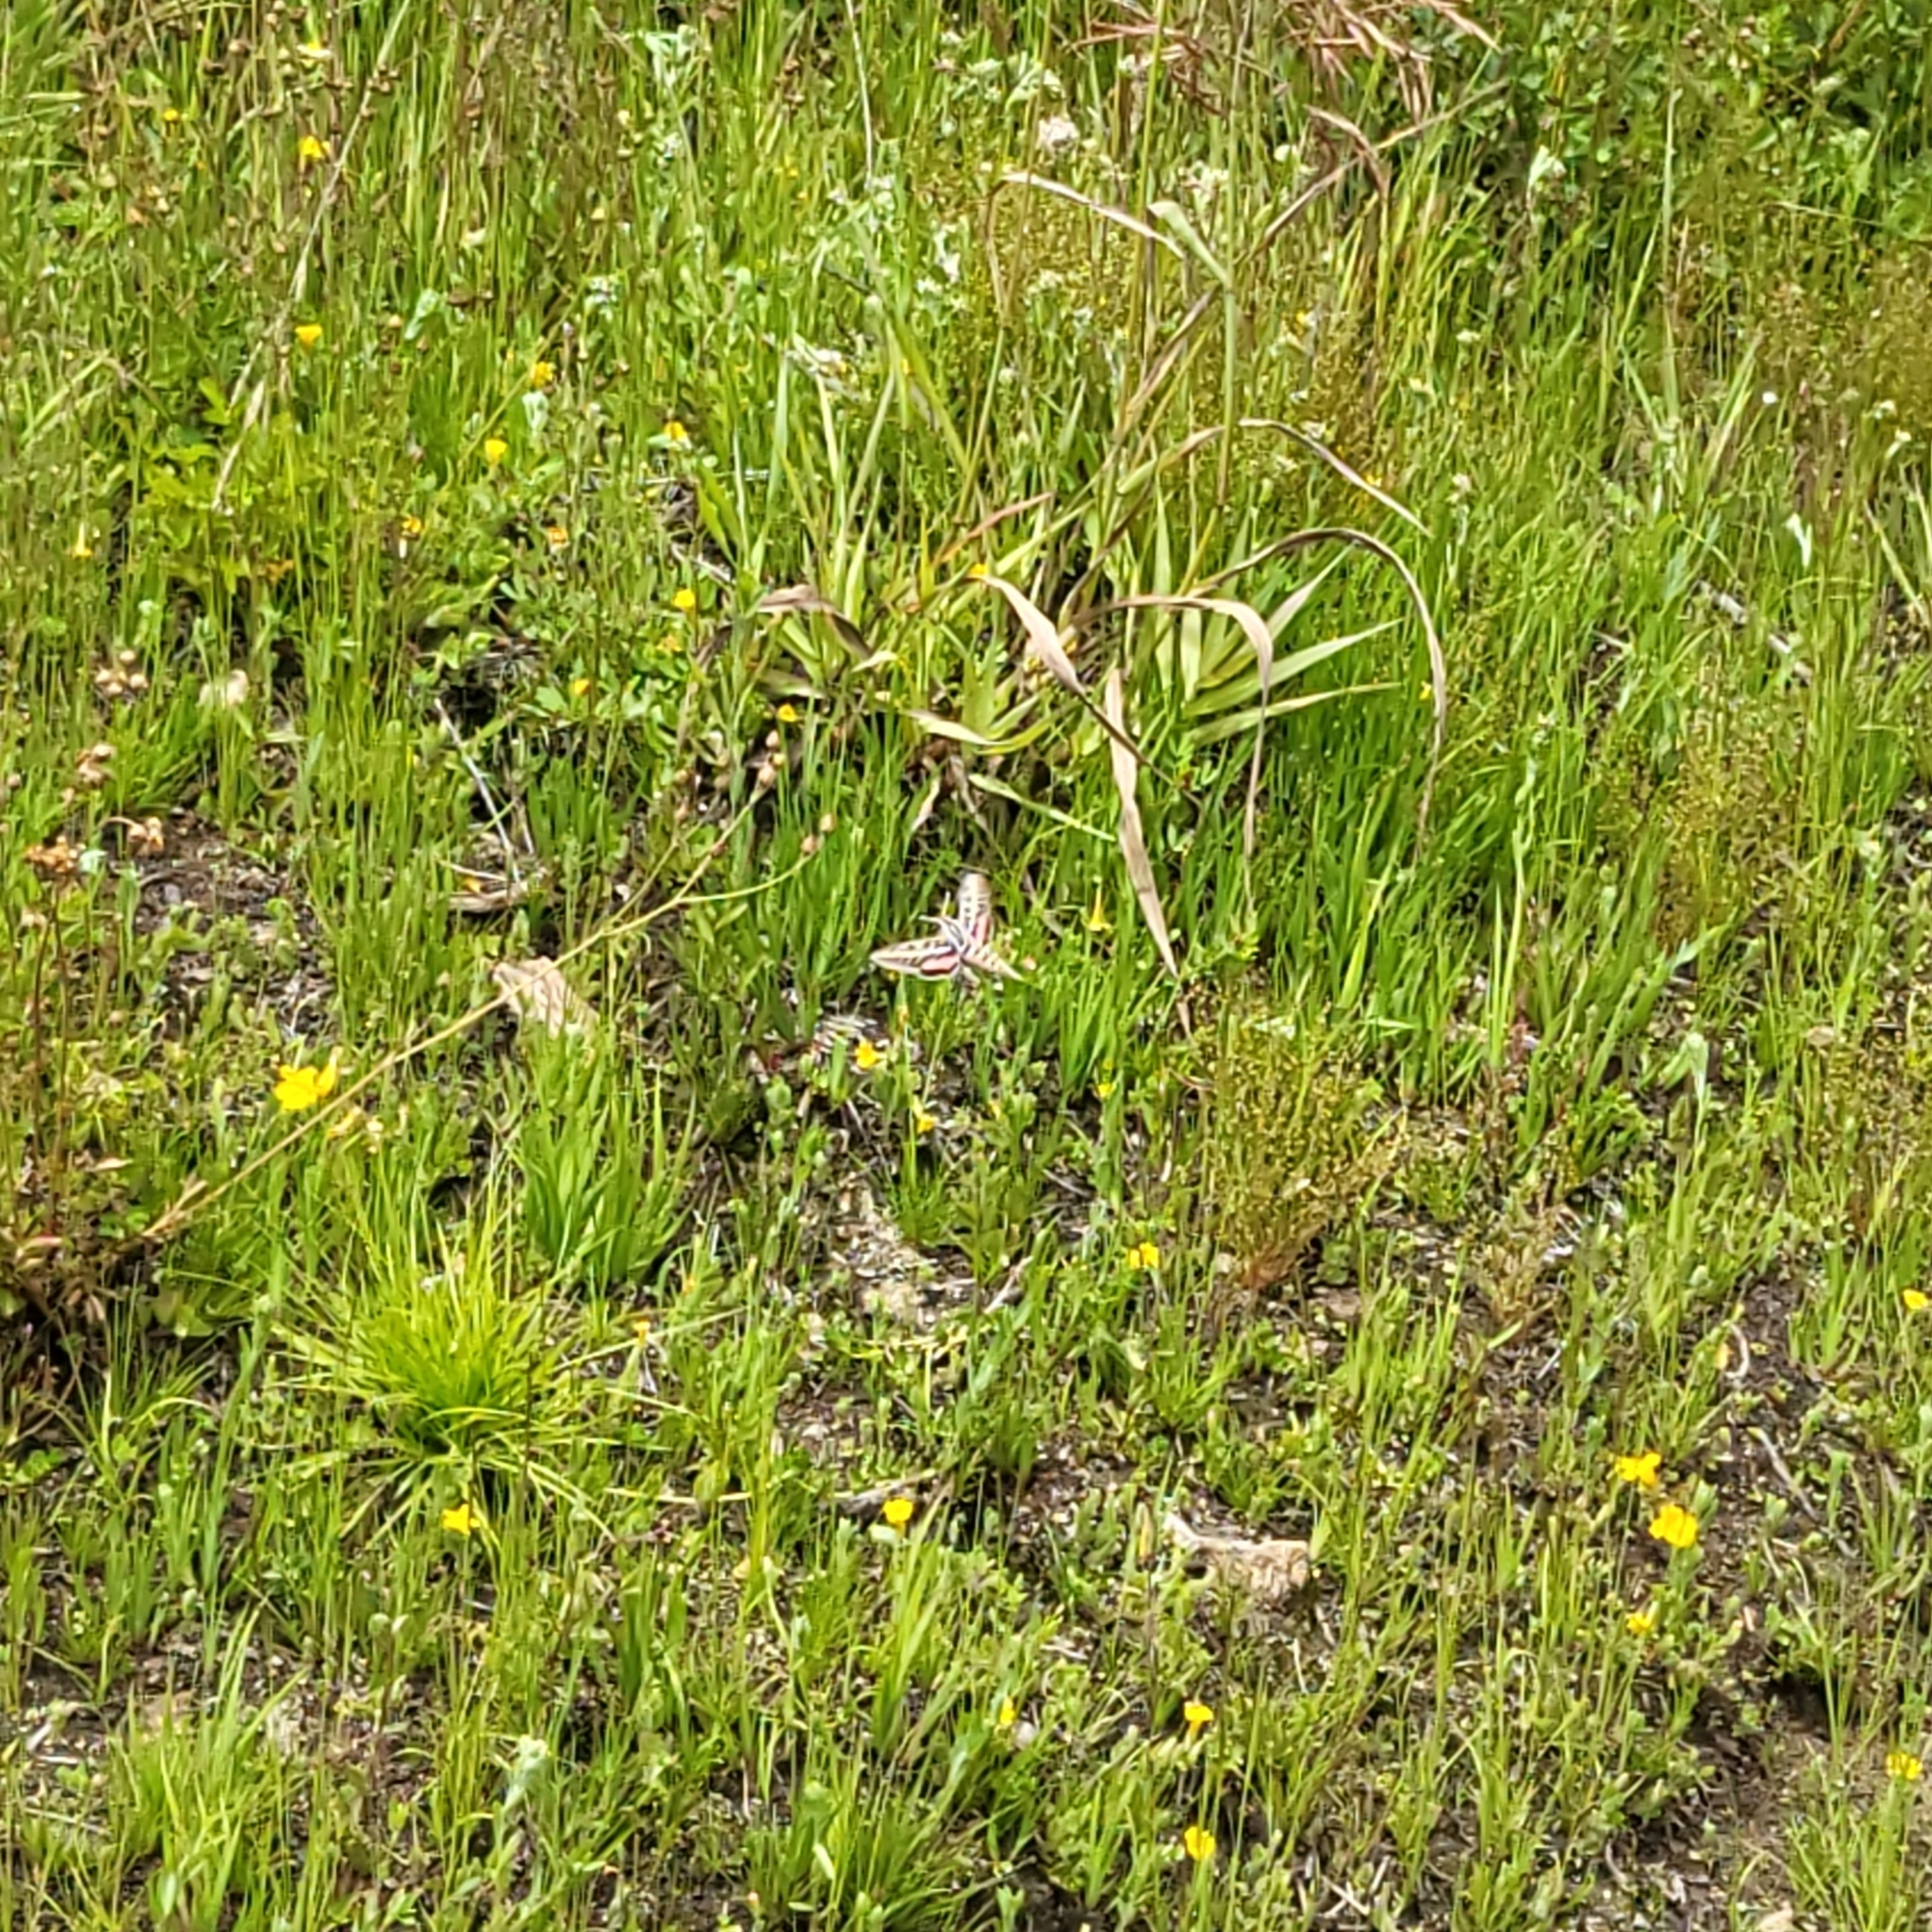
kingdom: Animalia
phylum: Arthropoda
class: Insecta
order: Lepidoptera
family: Sphingidae
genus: Hyles
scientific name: Hyles lineata
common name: White-lined sphinx
